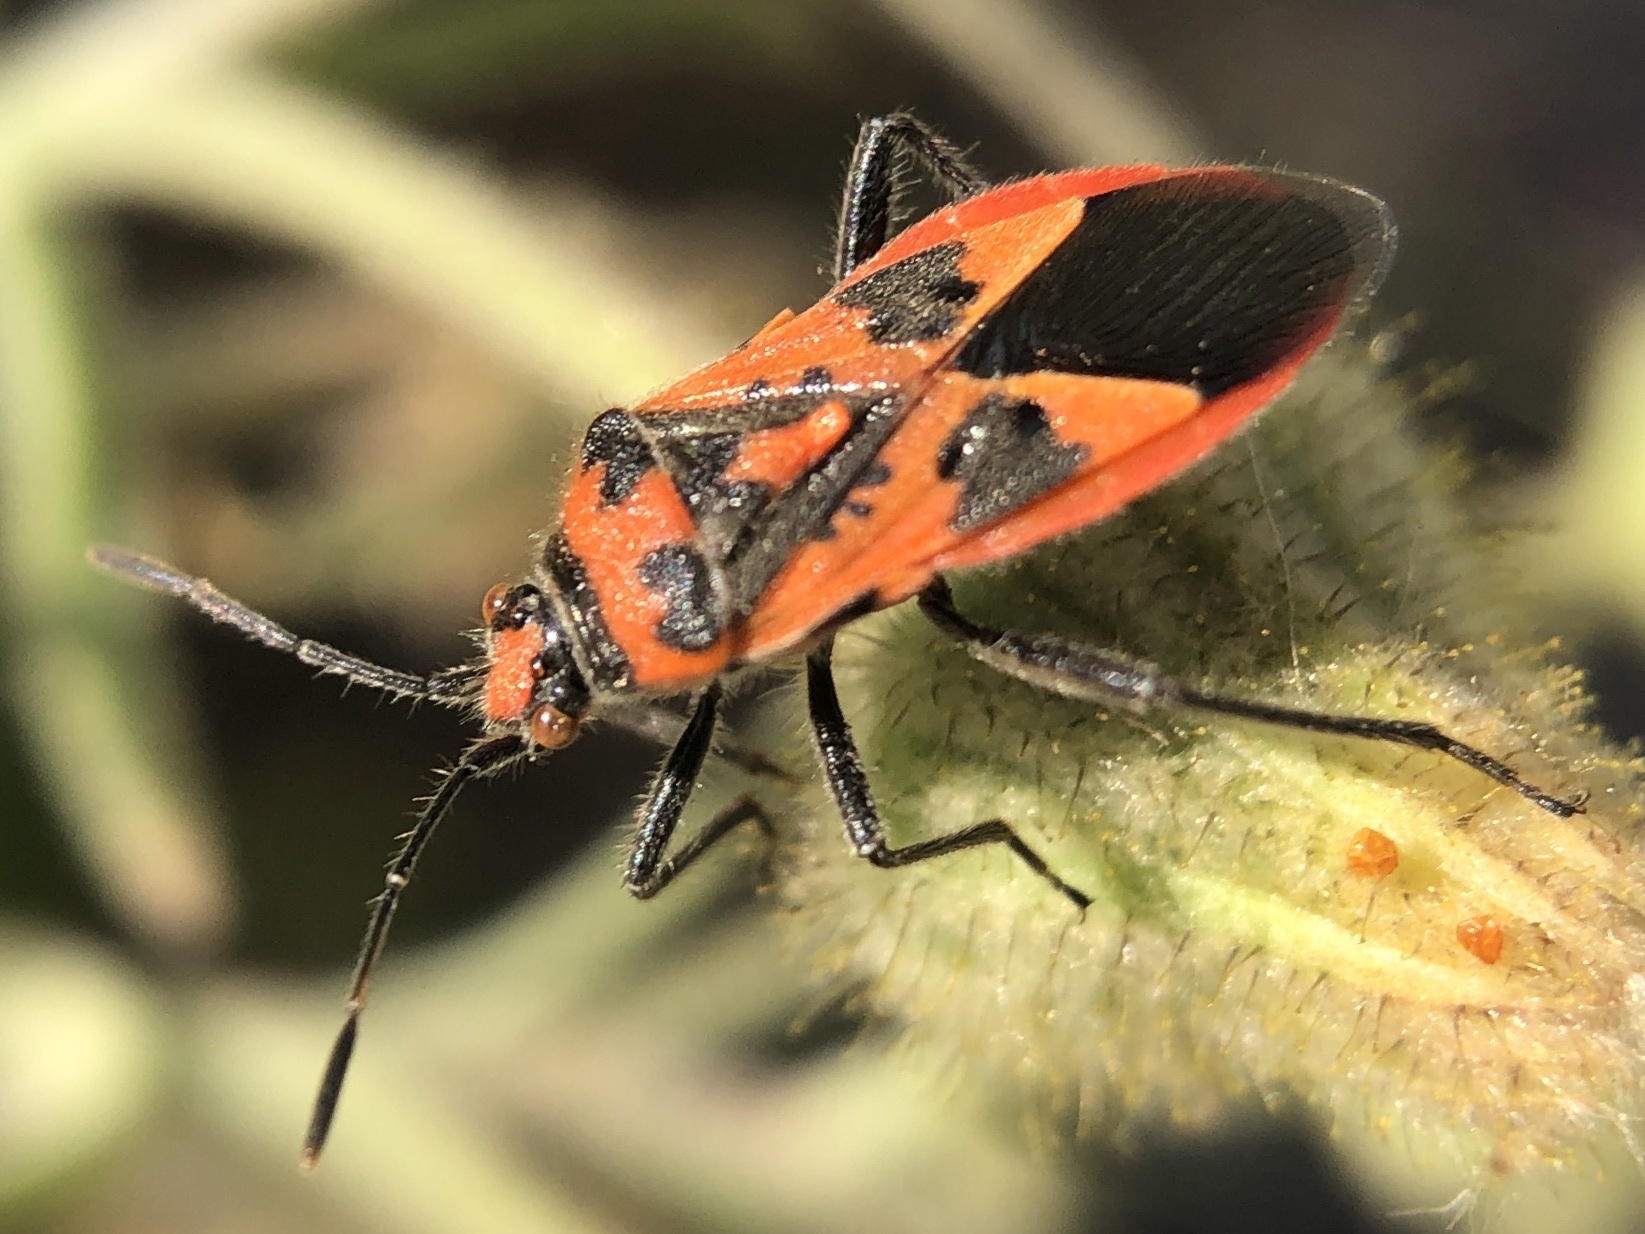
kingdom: Animalia
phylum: Arthropoda
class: Insecta
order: Hemiptera
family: Rhopalidae
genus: Corizus
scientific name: Corizus hyoscyami
